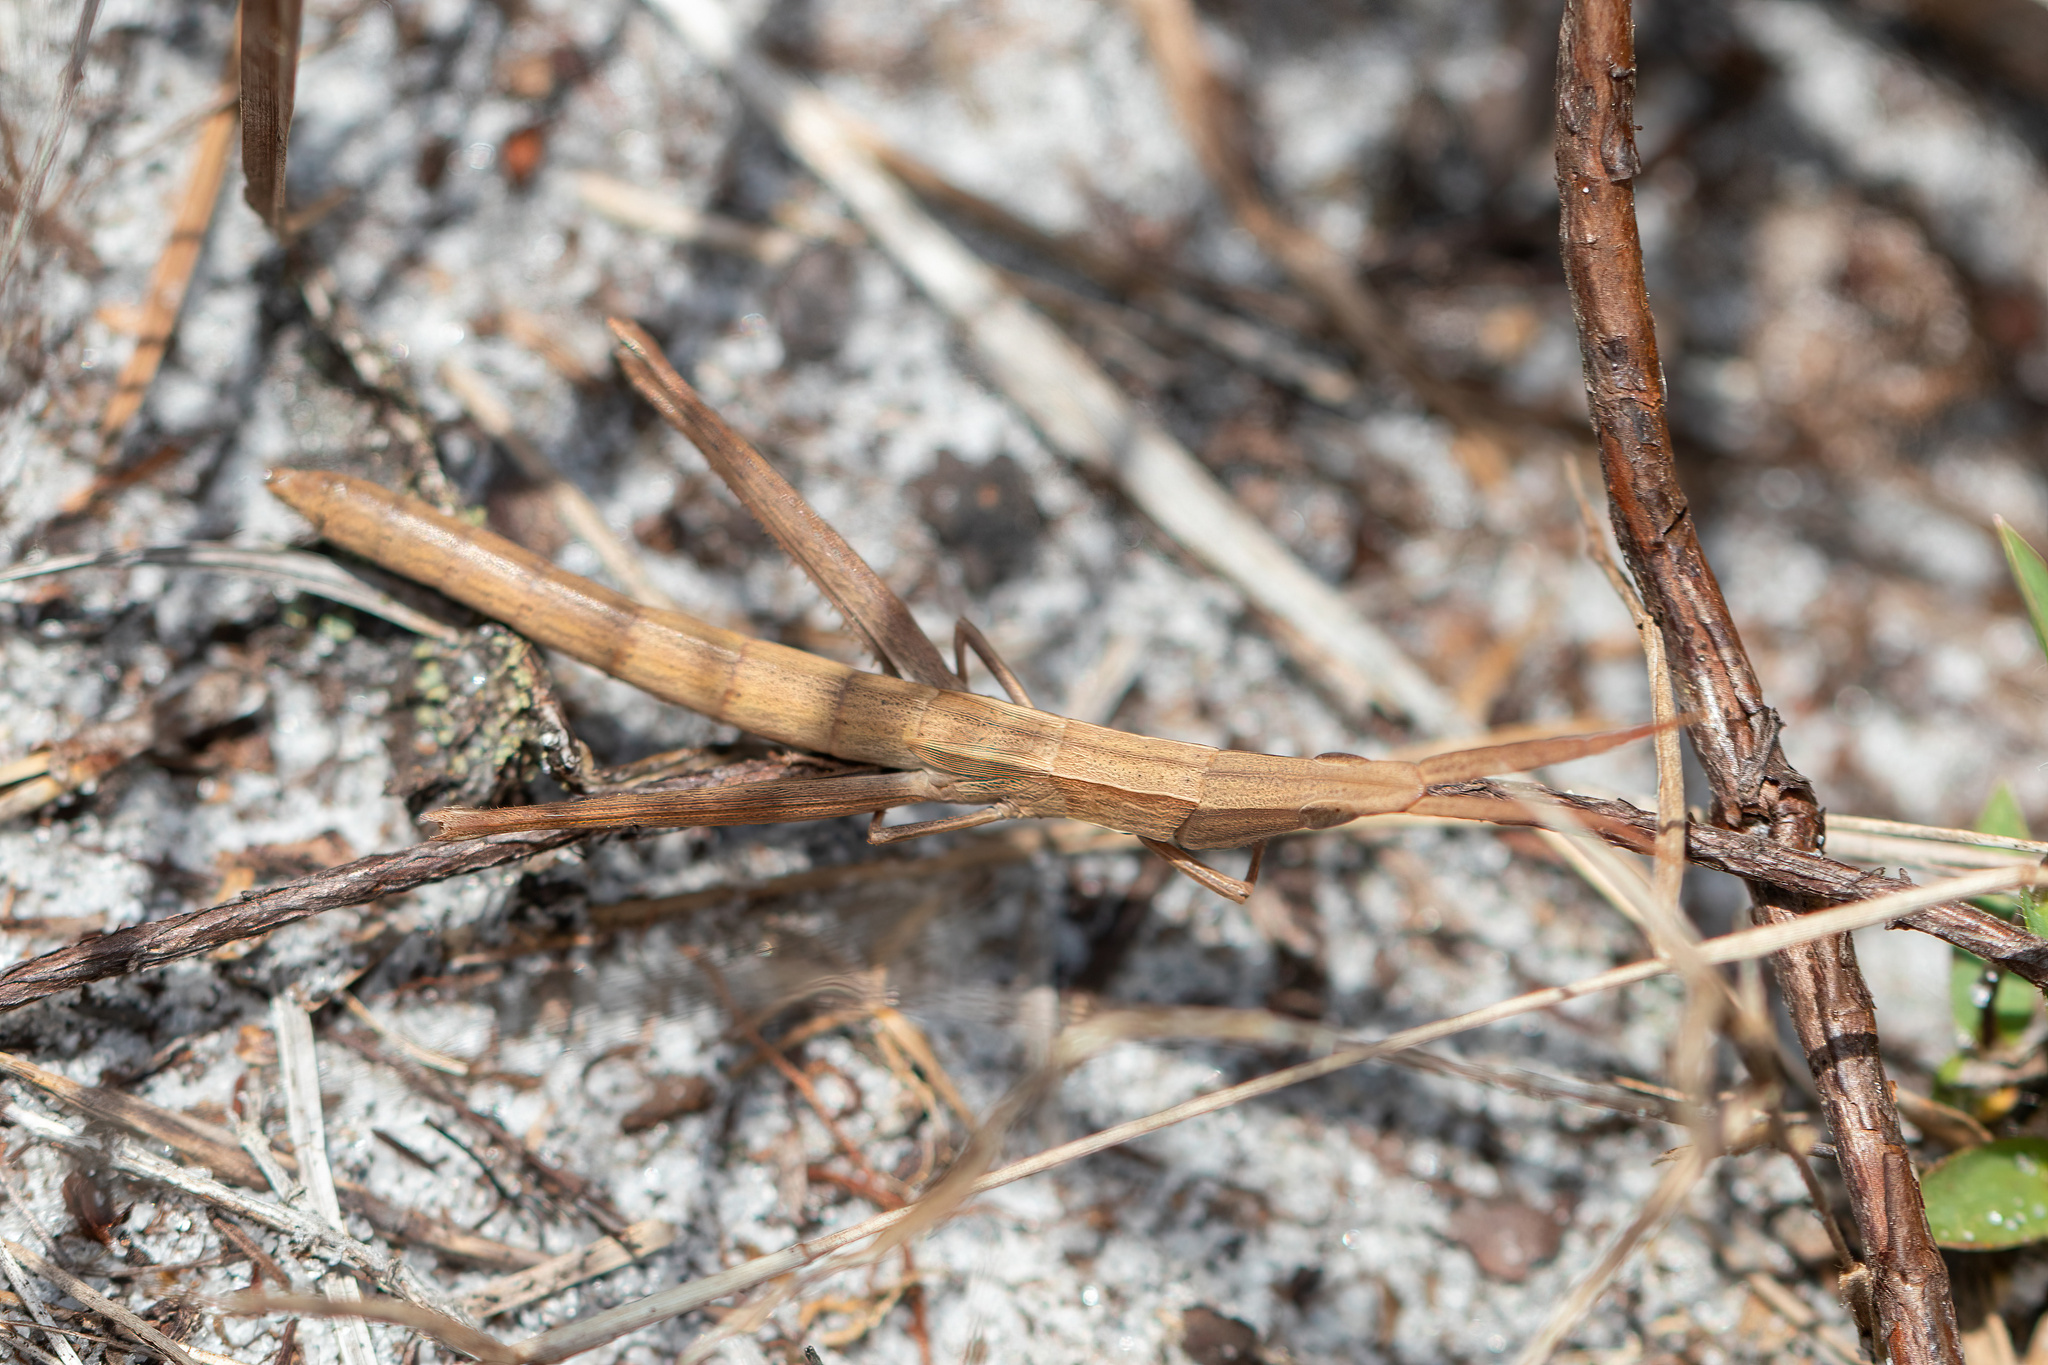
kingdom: Animalia
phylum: Arthropoda
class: Insecta
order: Orthoptera
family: Acrididae
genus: Achurum
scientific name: Achurum carinatum
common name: Long-headed toothpick grasshopper
